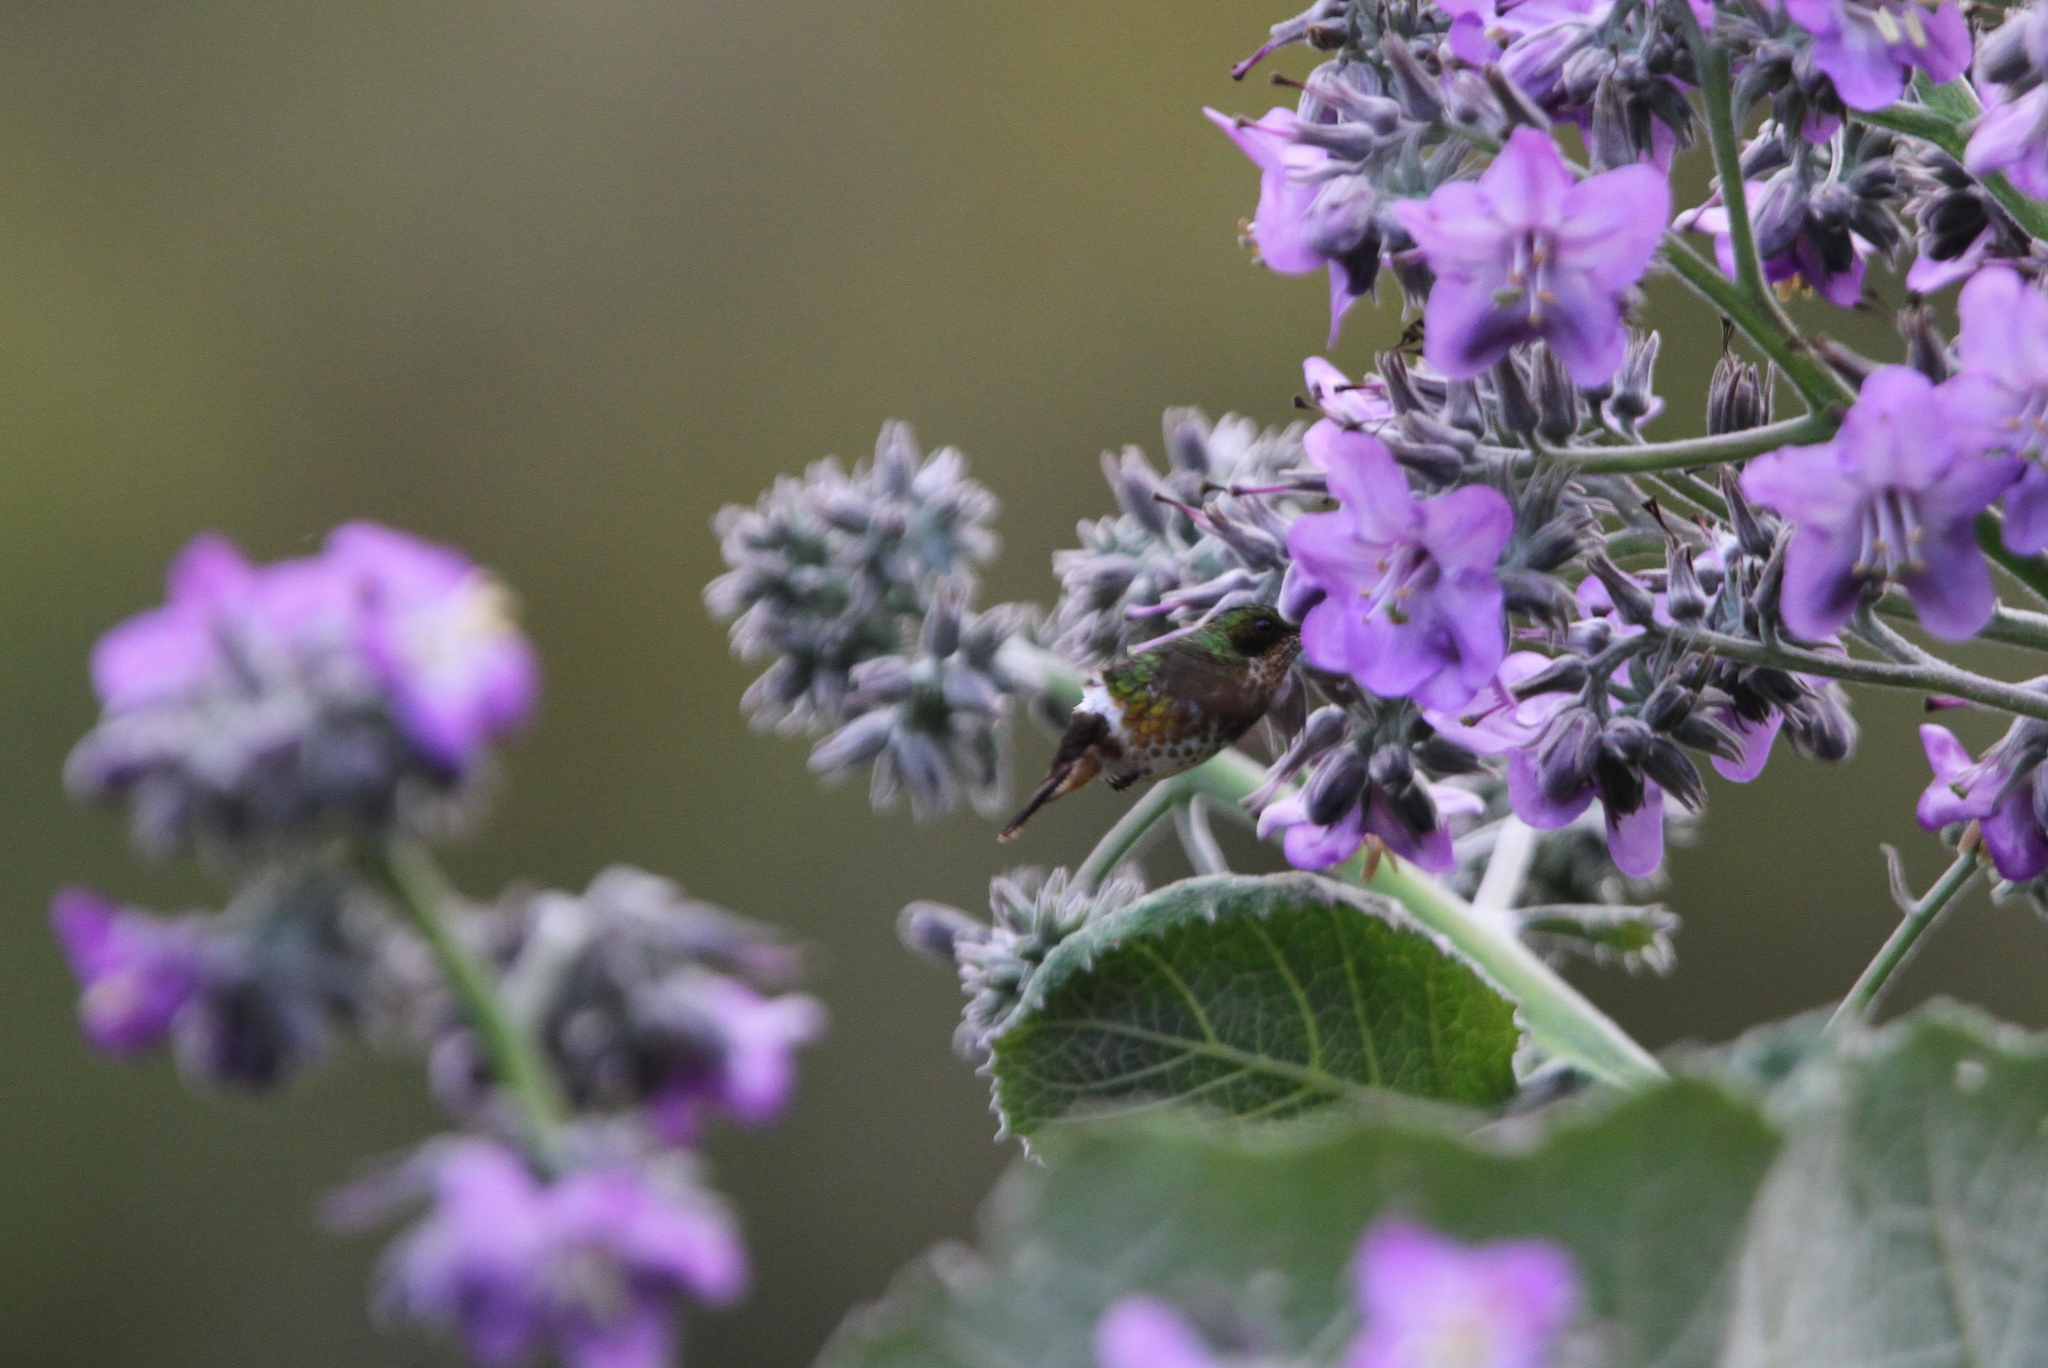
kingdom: Animalia
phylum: Chordata
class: Aves
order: Apodiformes
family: Trochilidae
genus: Lophornis
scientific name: Lophornis helenae
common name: Black-crested coquette
